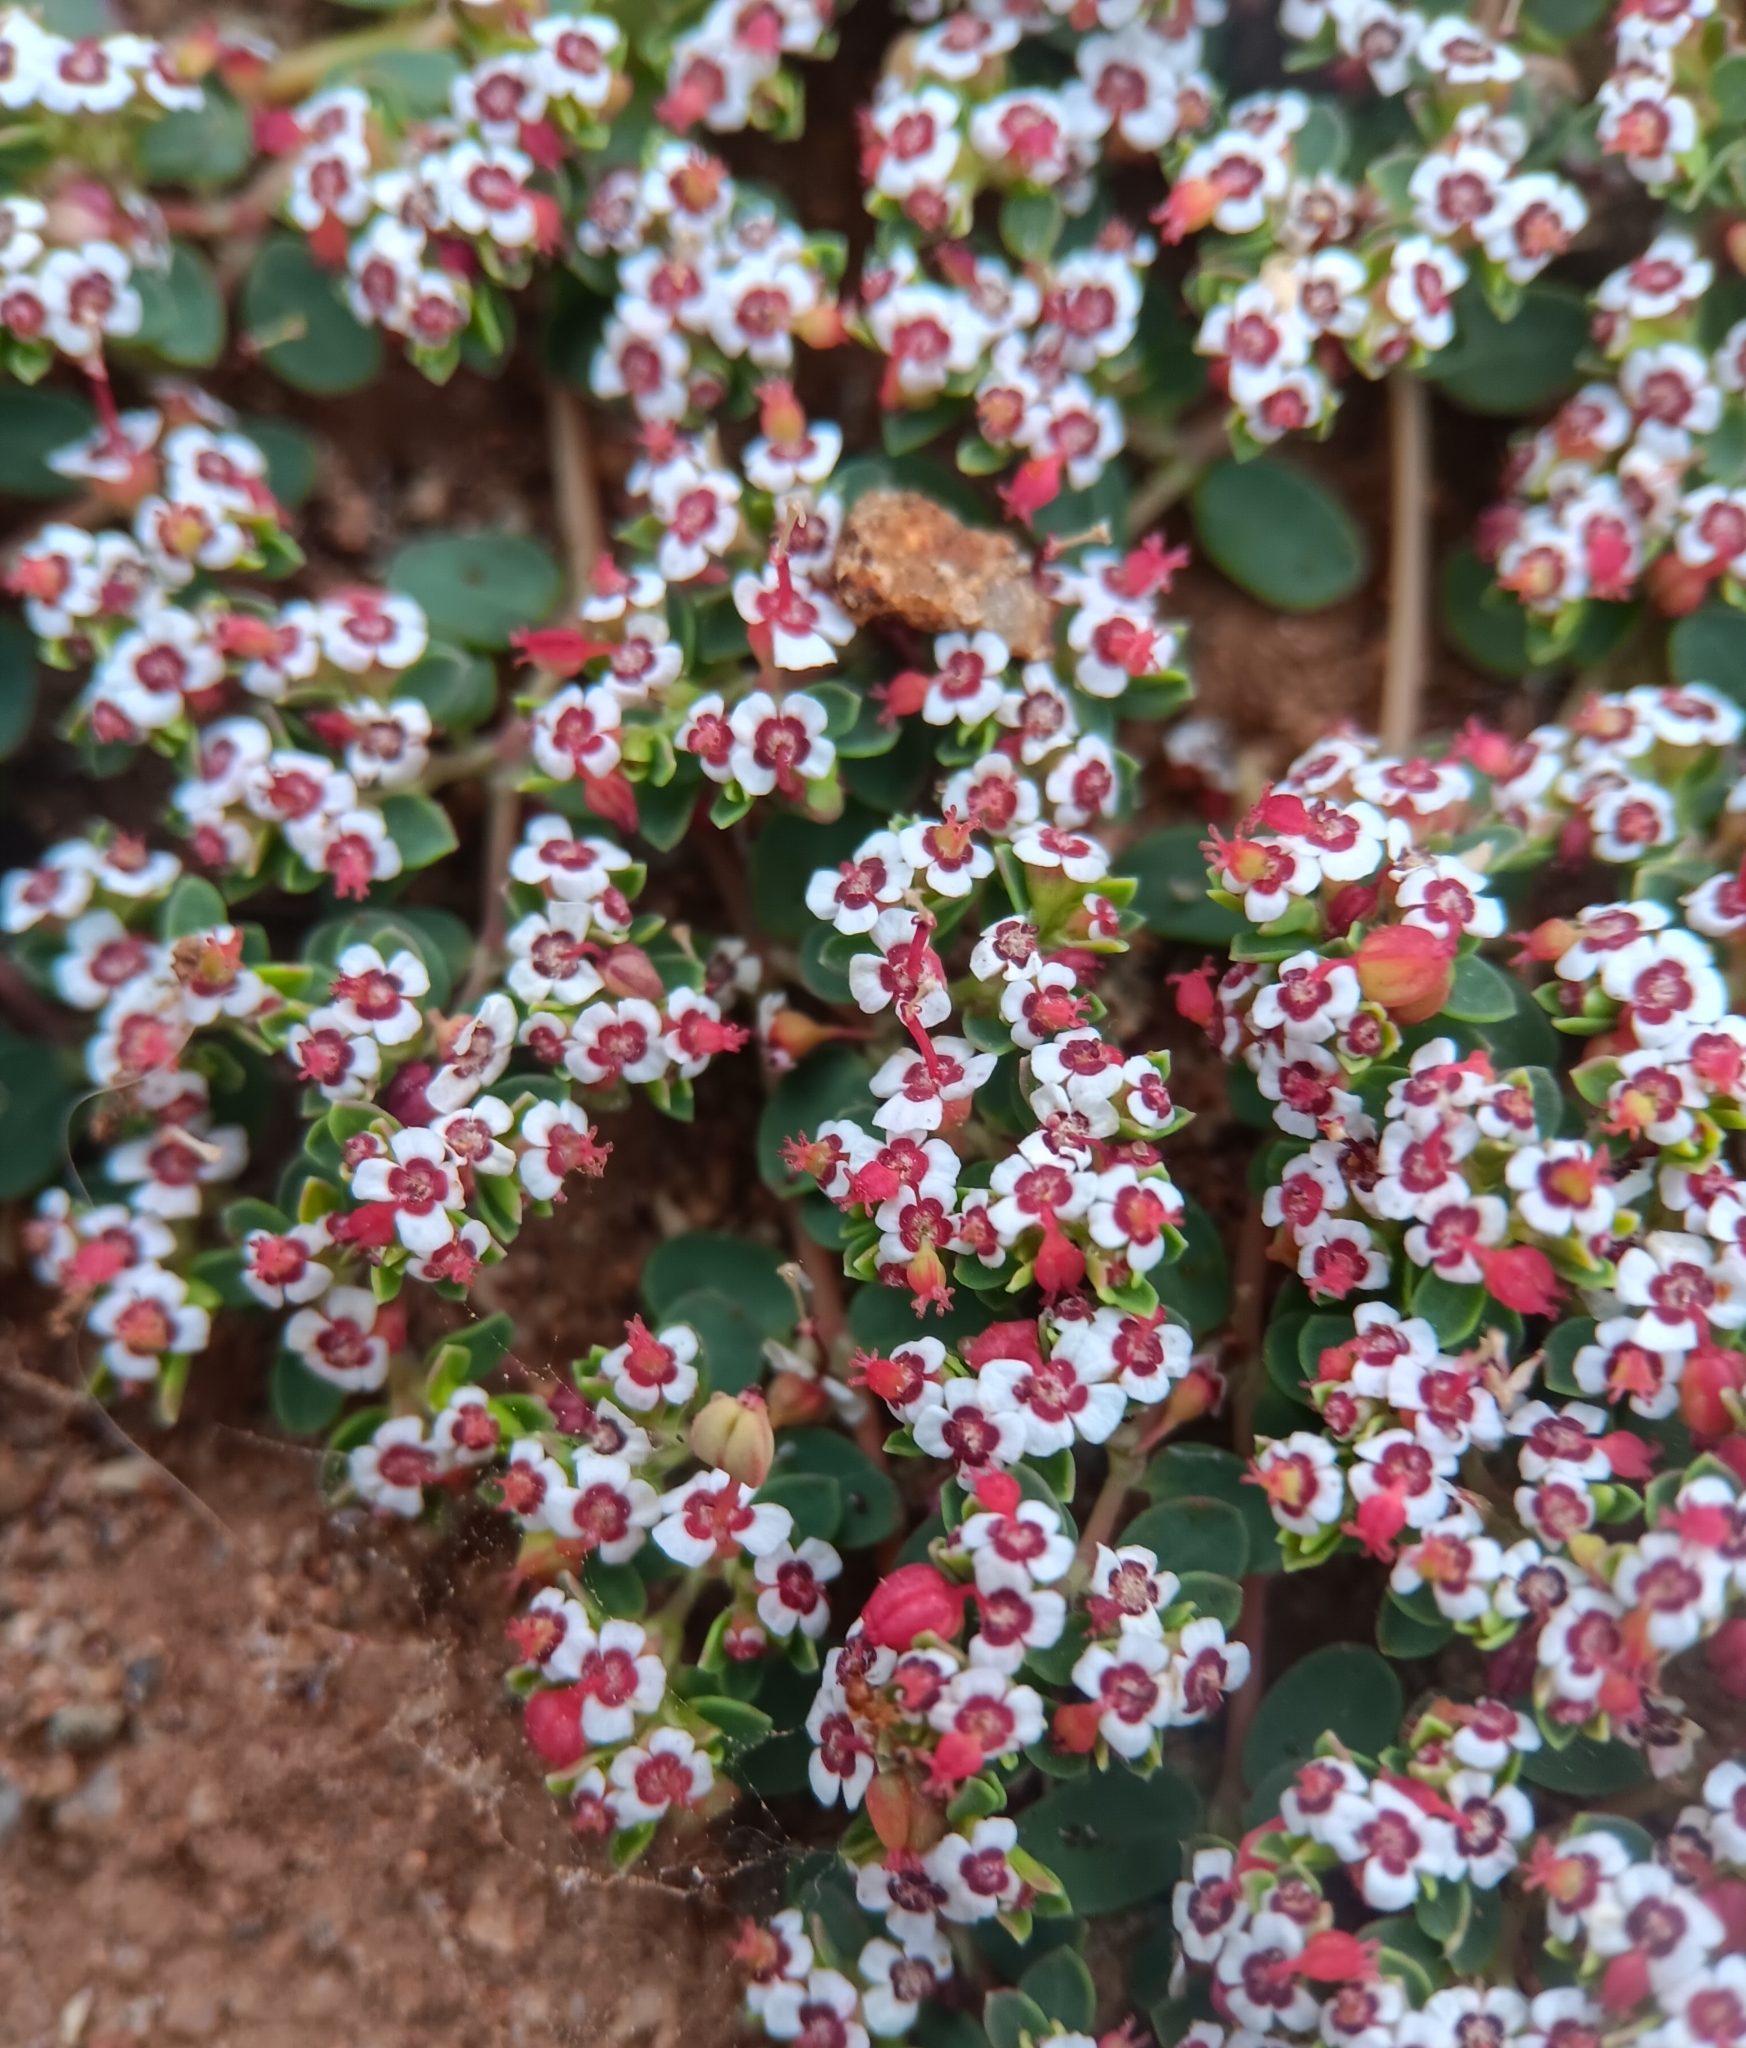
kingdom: Plantae
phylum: Tracheophyta
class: Magnoliopsida
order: Malpighiales
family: Euphorbiaceae
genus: Euphorbia
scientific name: Euphorbia polycarpa
